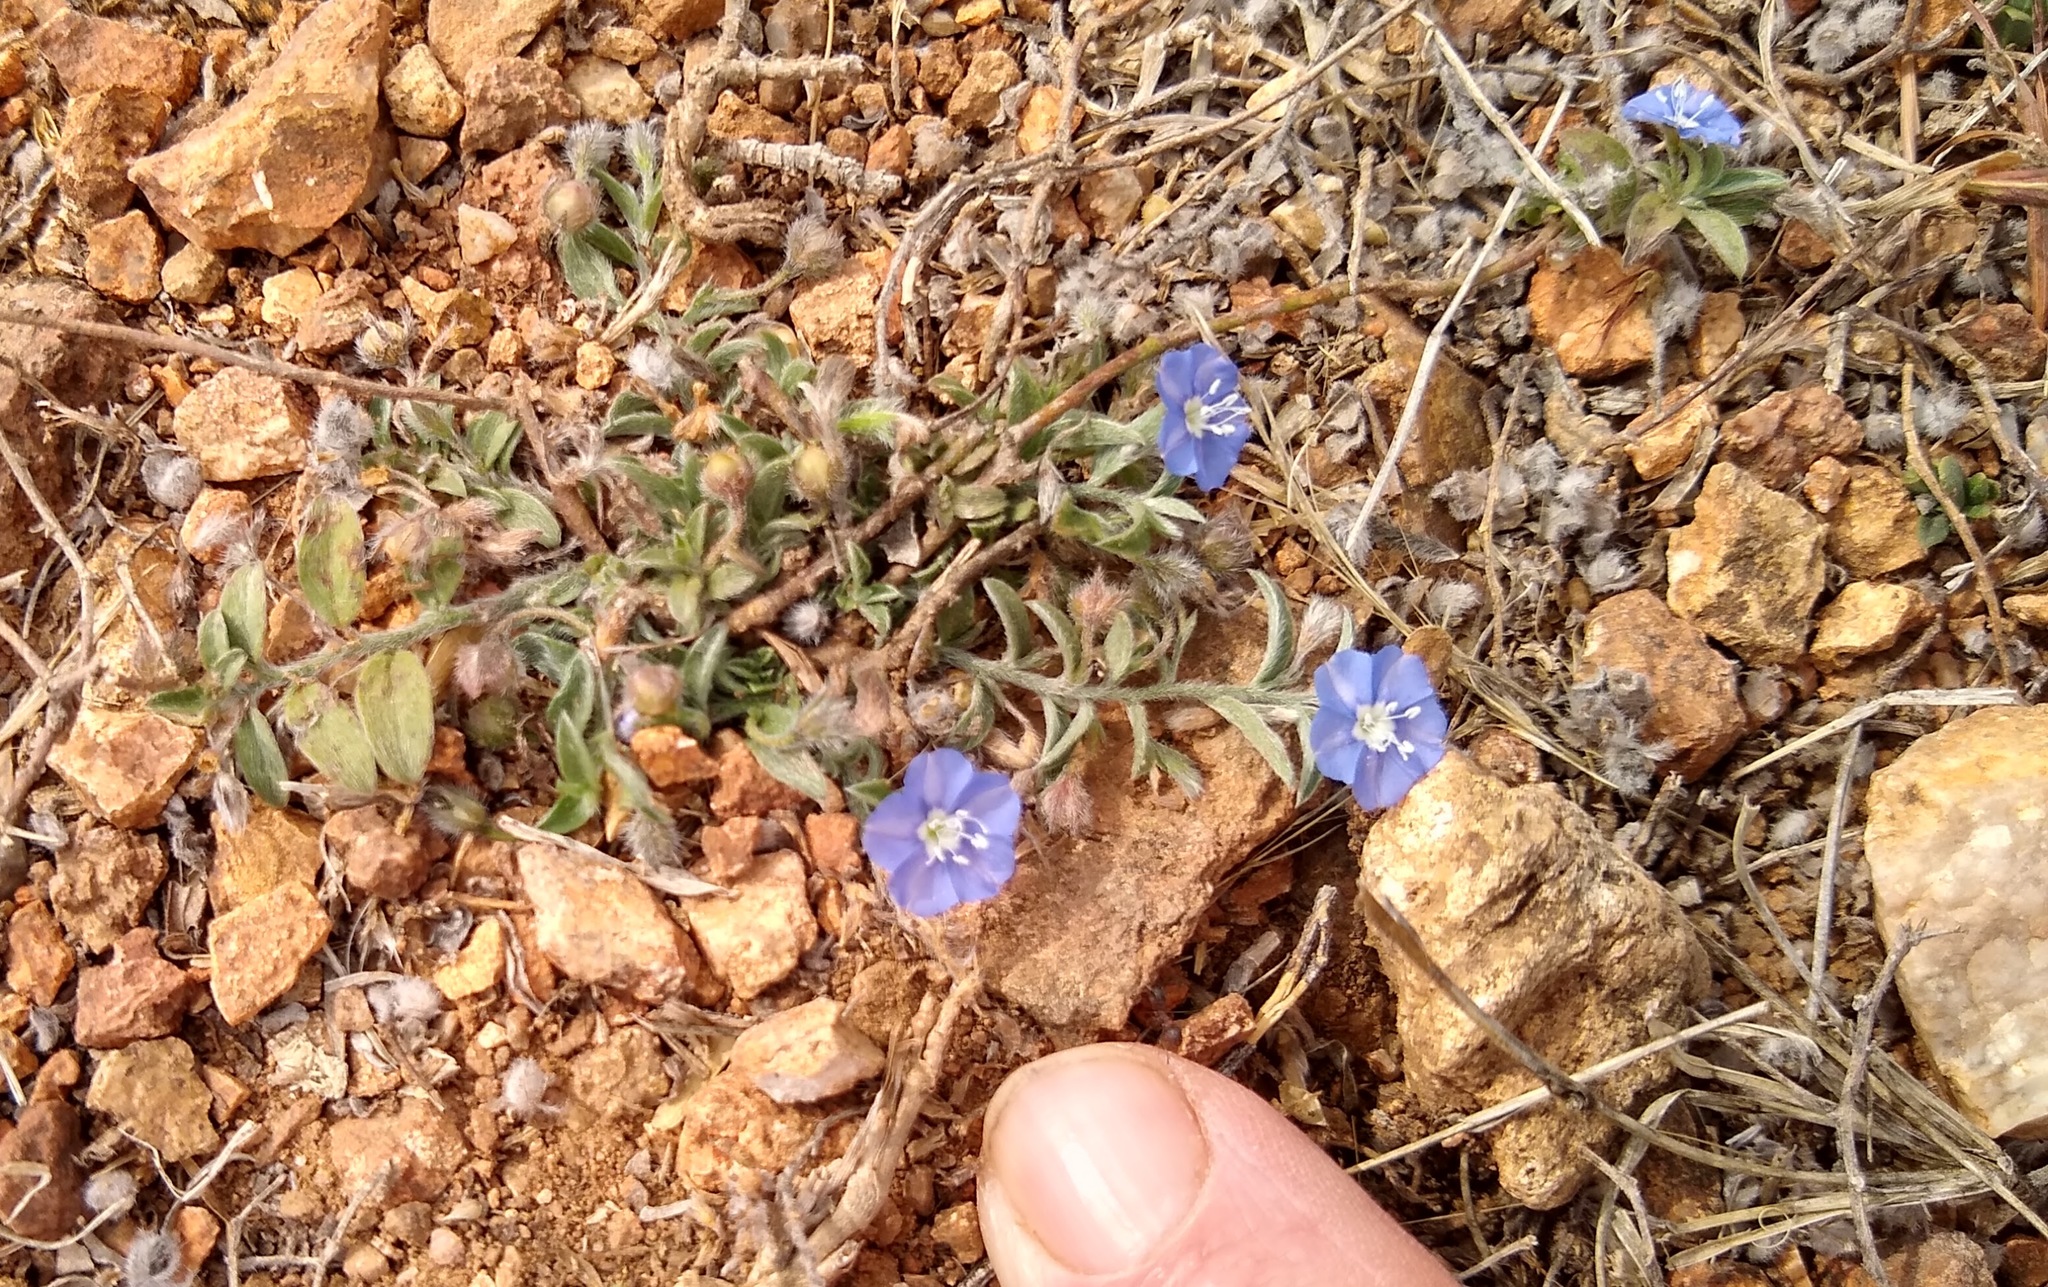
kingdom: Plantae
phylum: Tracheophyta
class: Magnoliopsida
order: Solanales
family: Convolvulaceae
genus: Evolvulus
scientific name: Evolvulus alsinoides
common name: Slender dwarf morning-glory
